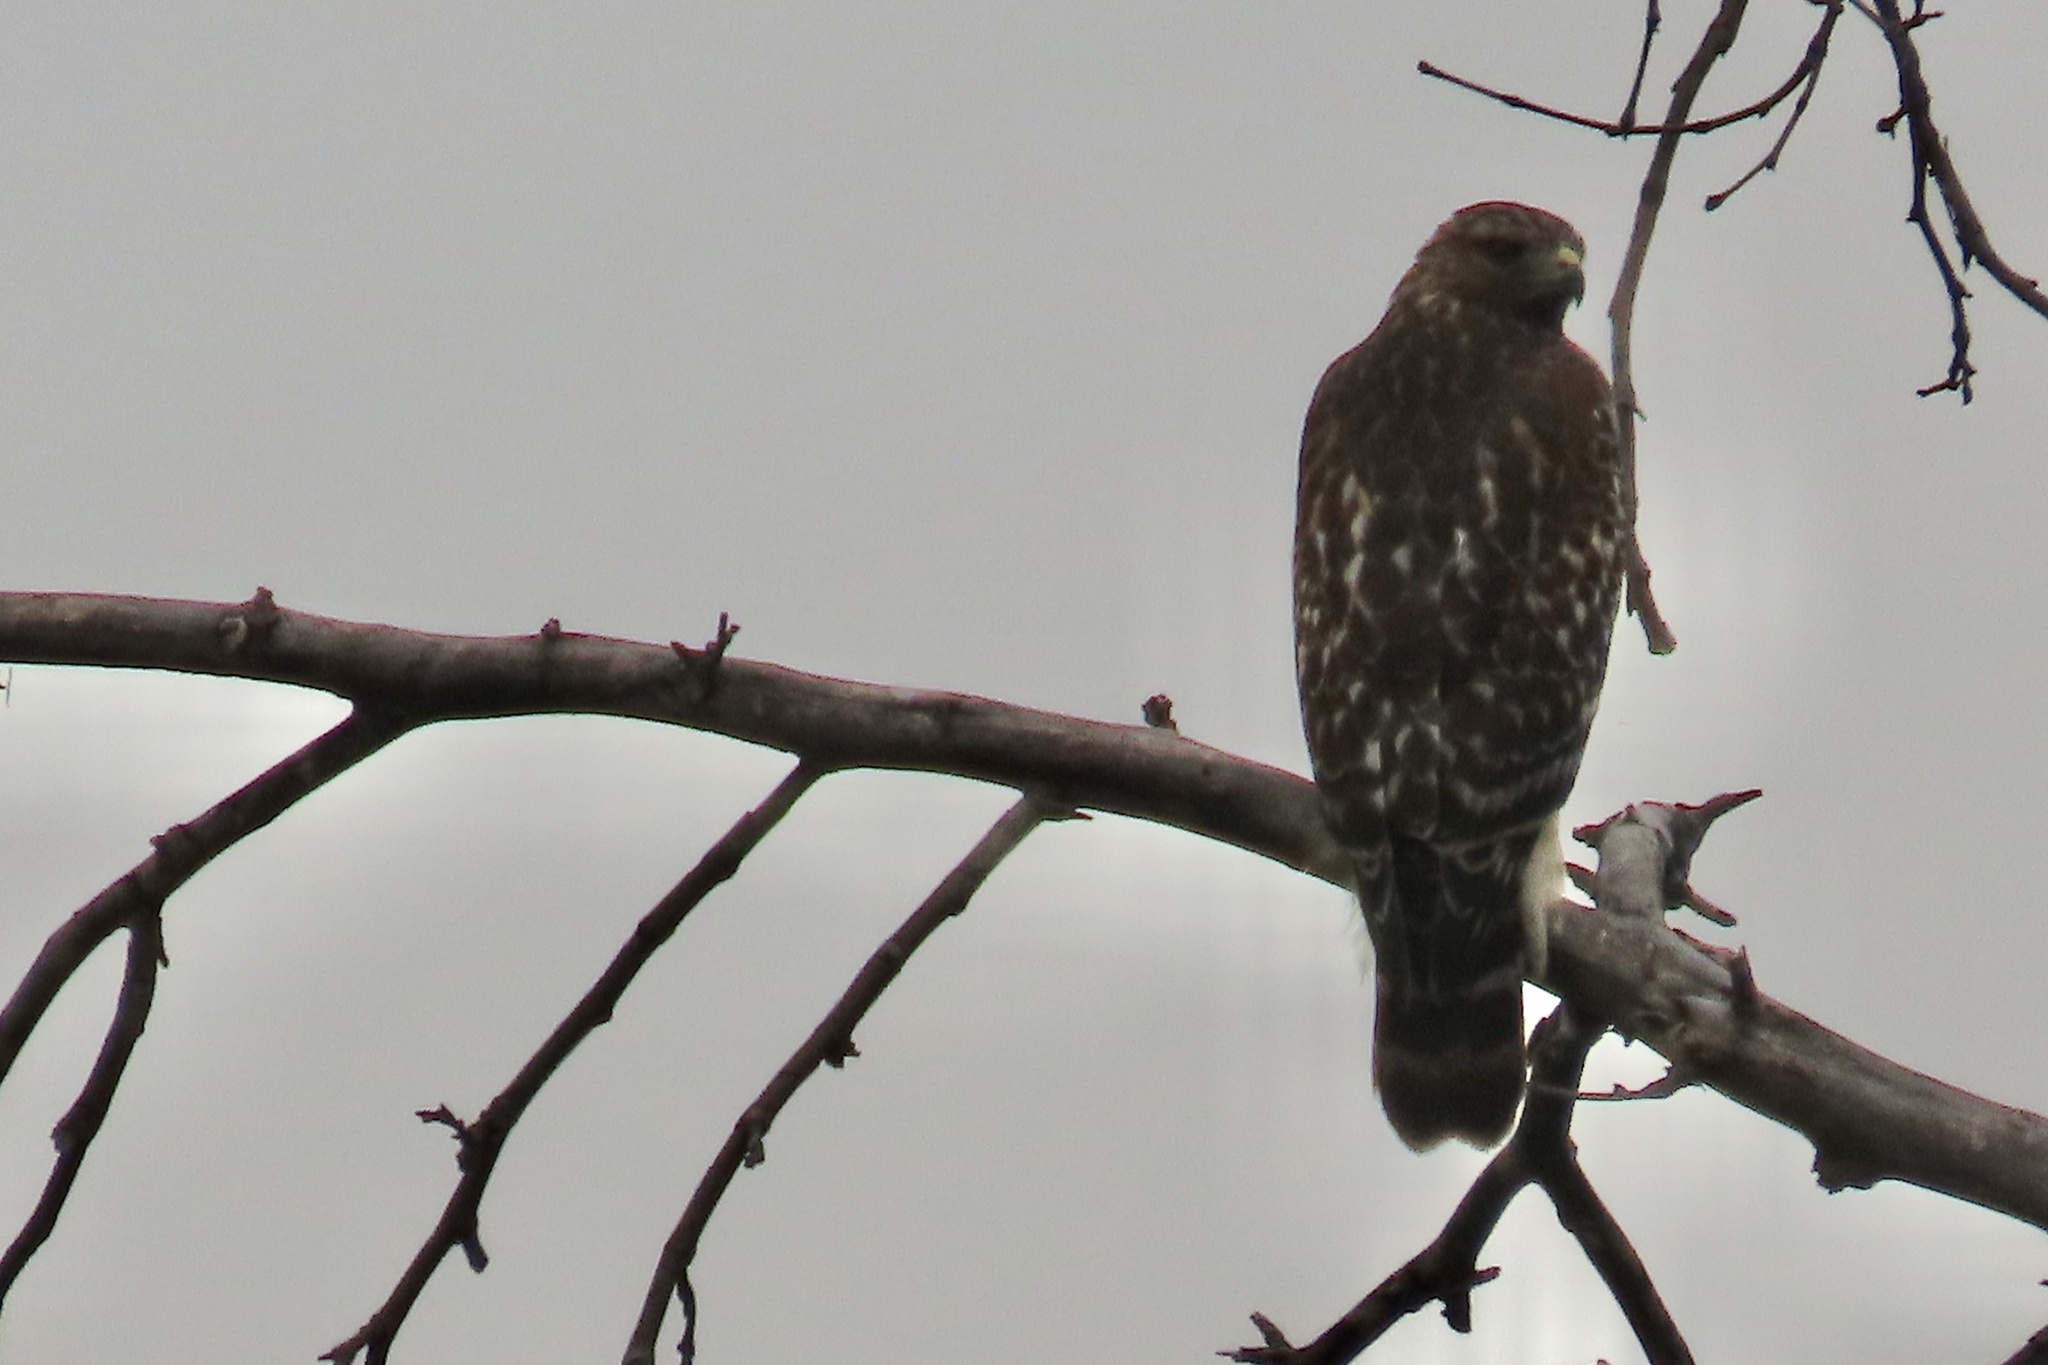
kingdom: Animalia
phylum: Chordata
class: Aves
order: Accipitriformes
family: Accipitridae
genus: Buteo
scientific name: Buteo lineatus
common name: Red-shouldered hawk
